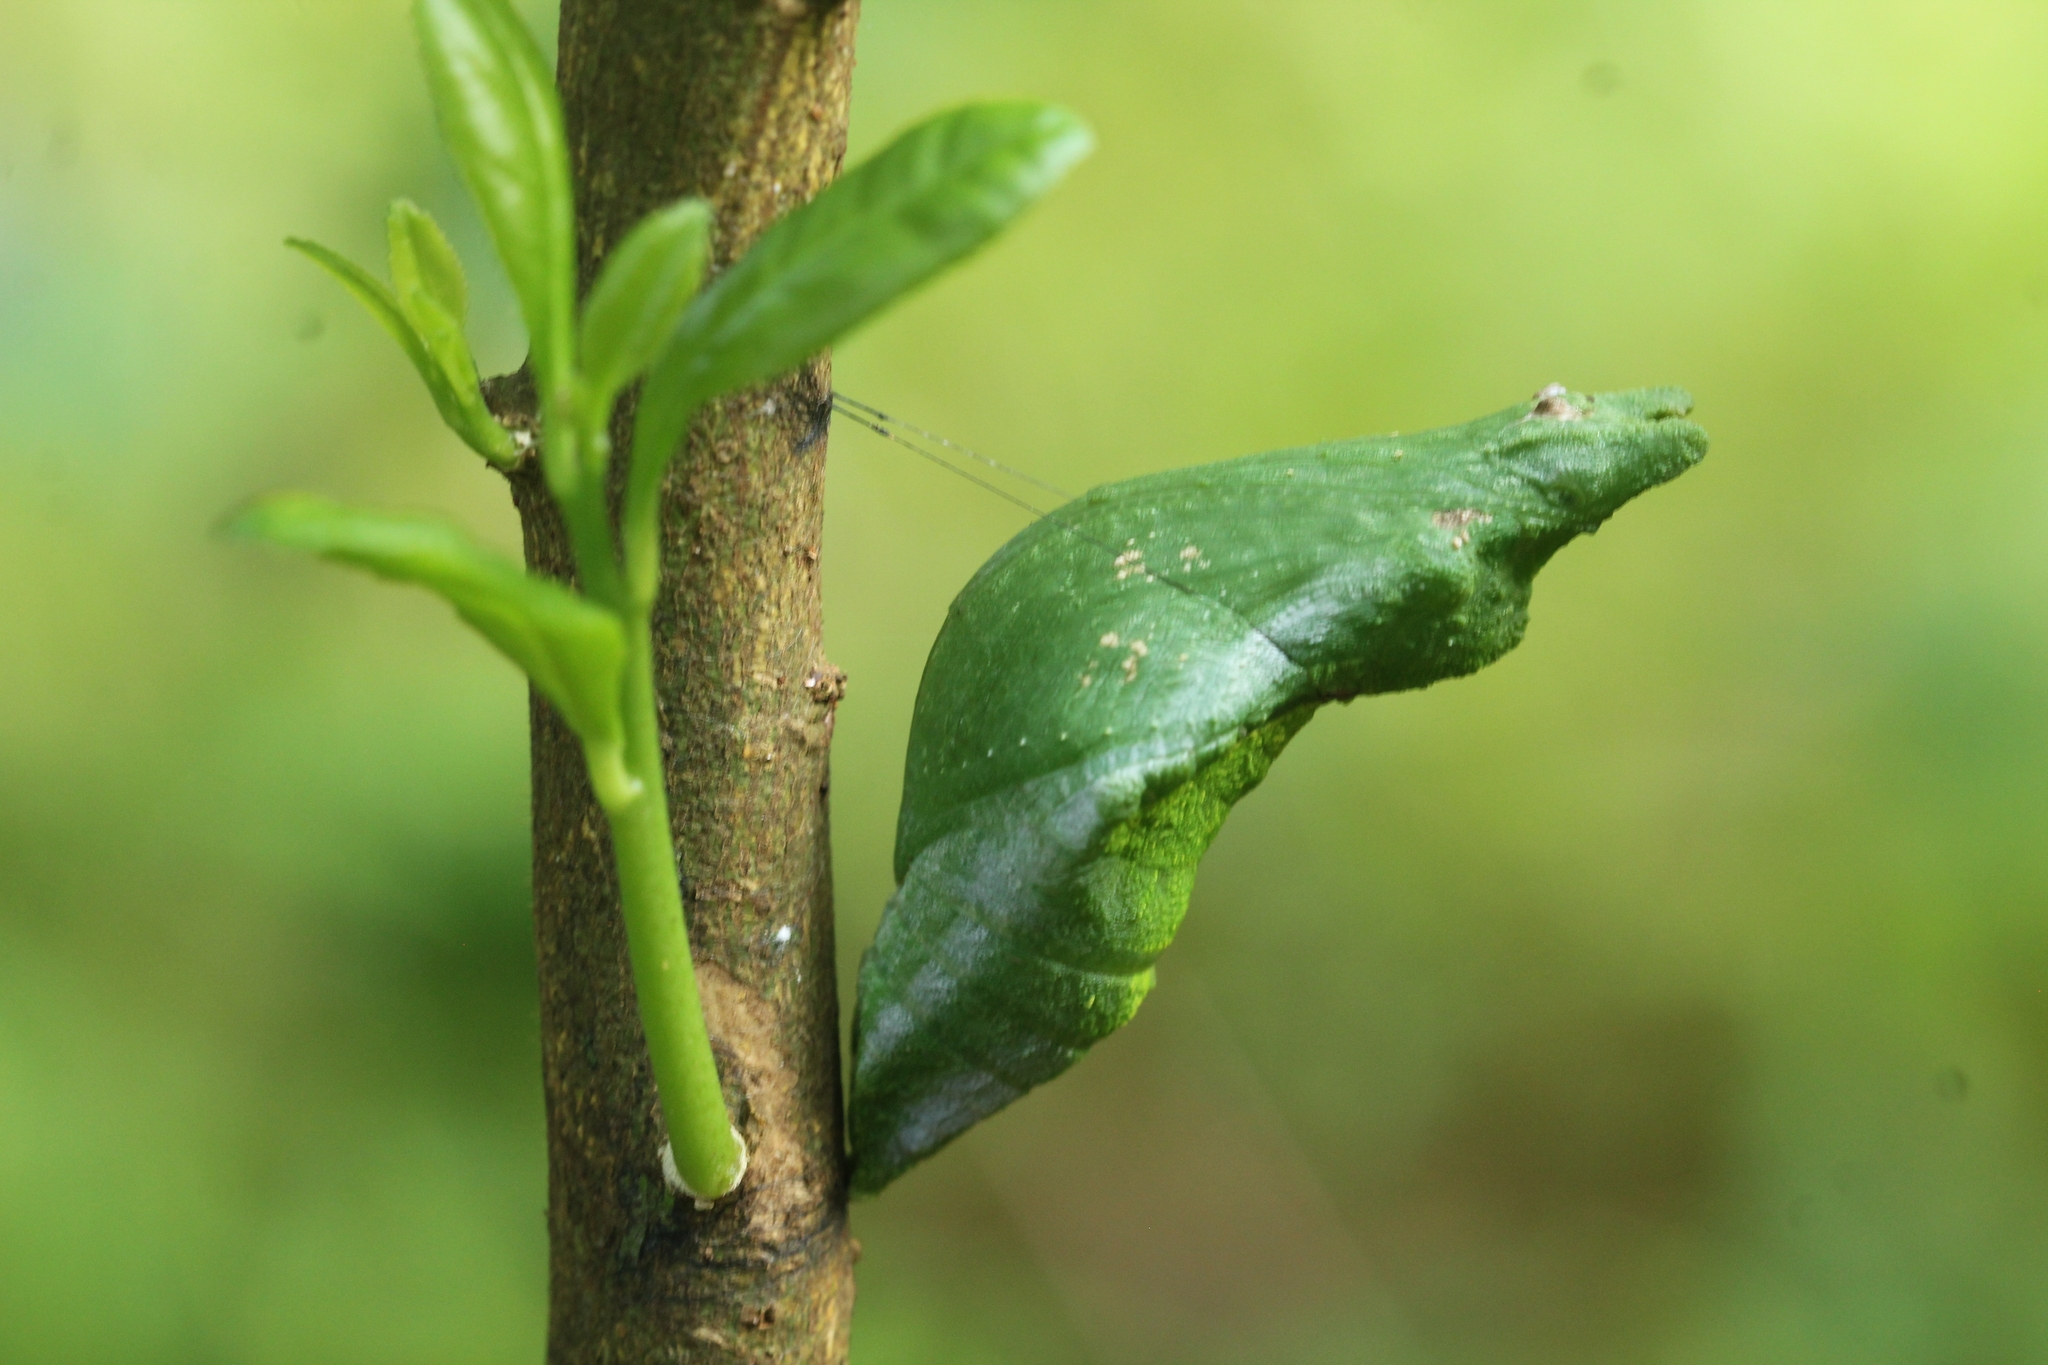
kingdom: Animalia
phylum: Arthropoda
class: Insecta
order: Lepidoptera
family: Papilionidae
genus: Papilio
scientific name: Papilio memnon
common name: Great mormon
